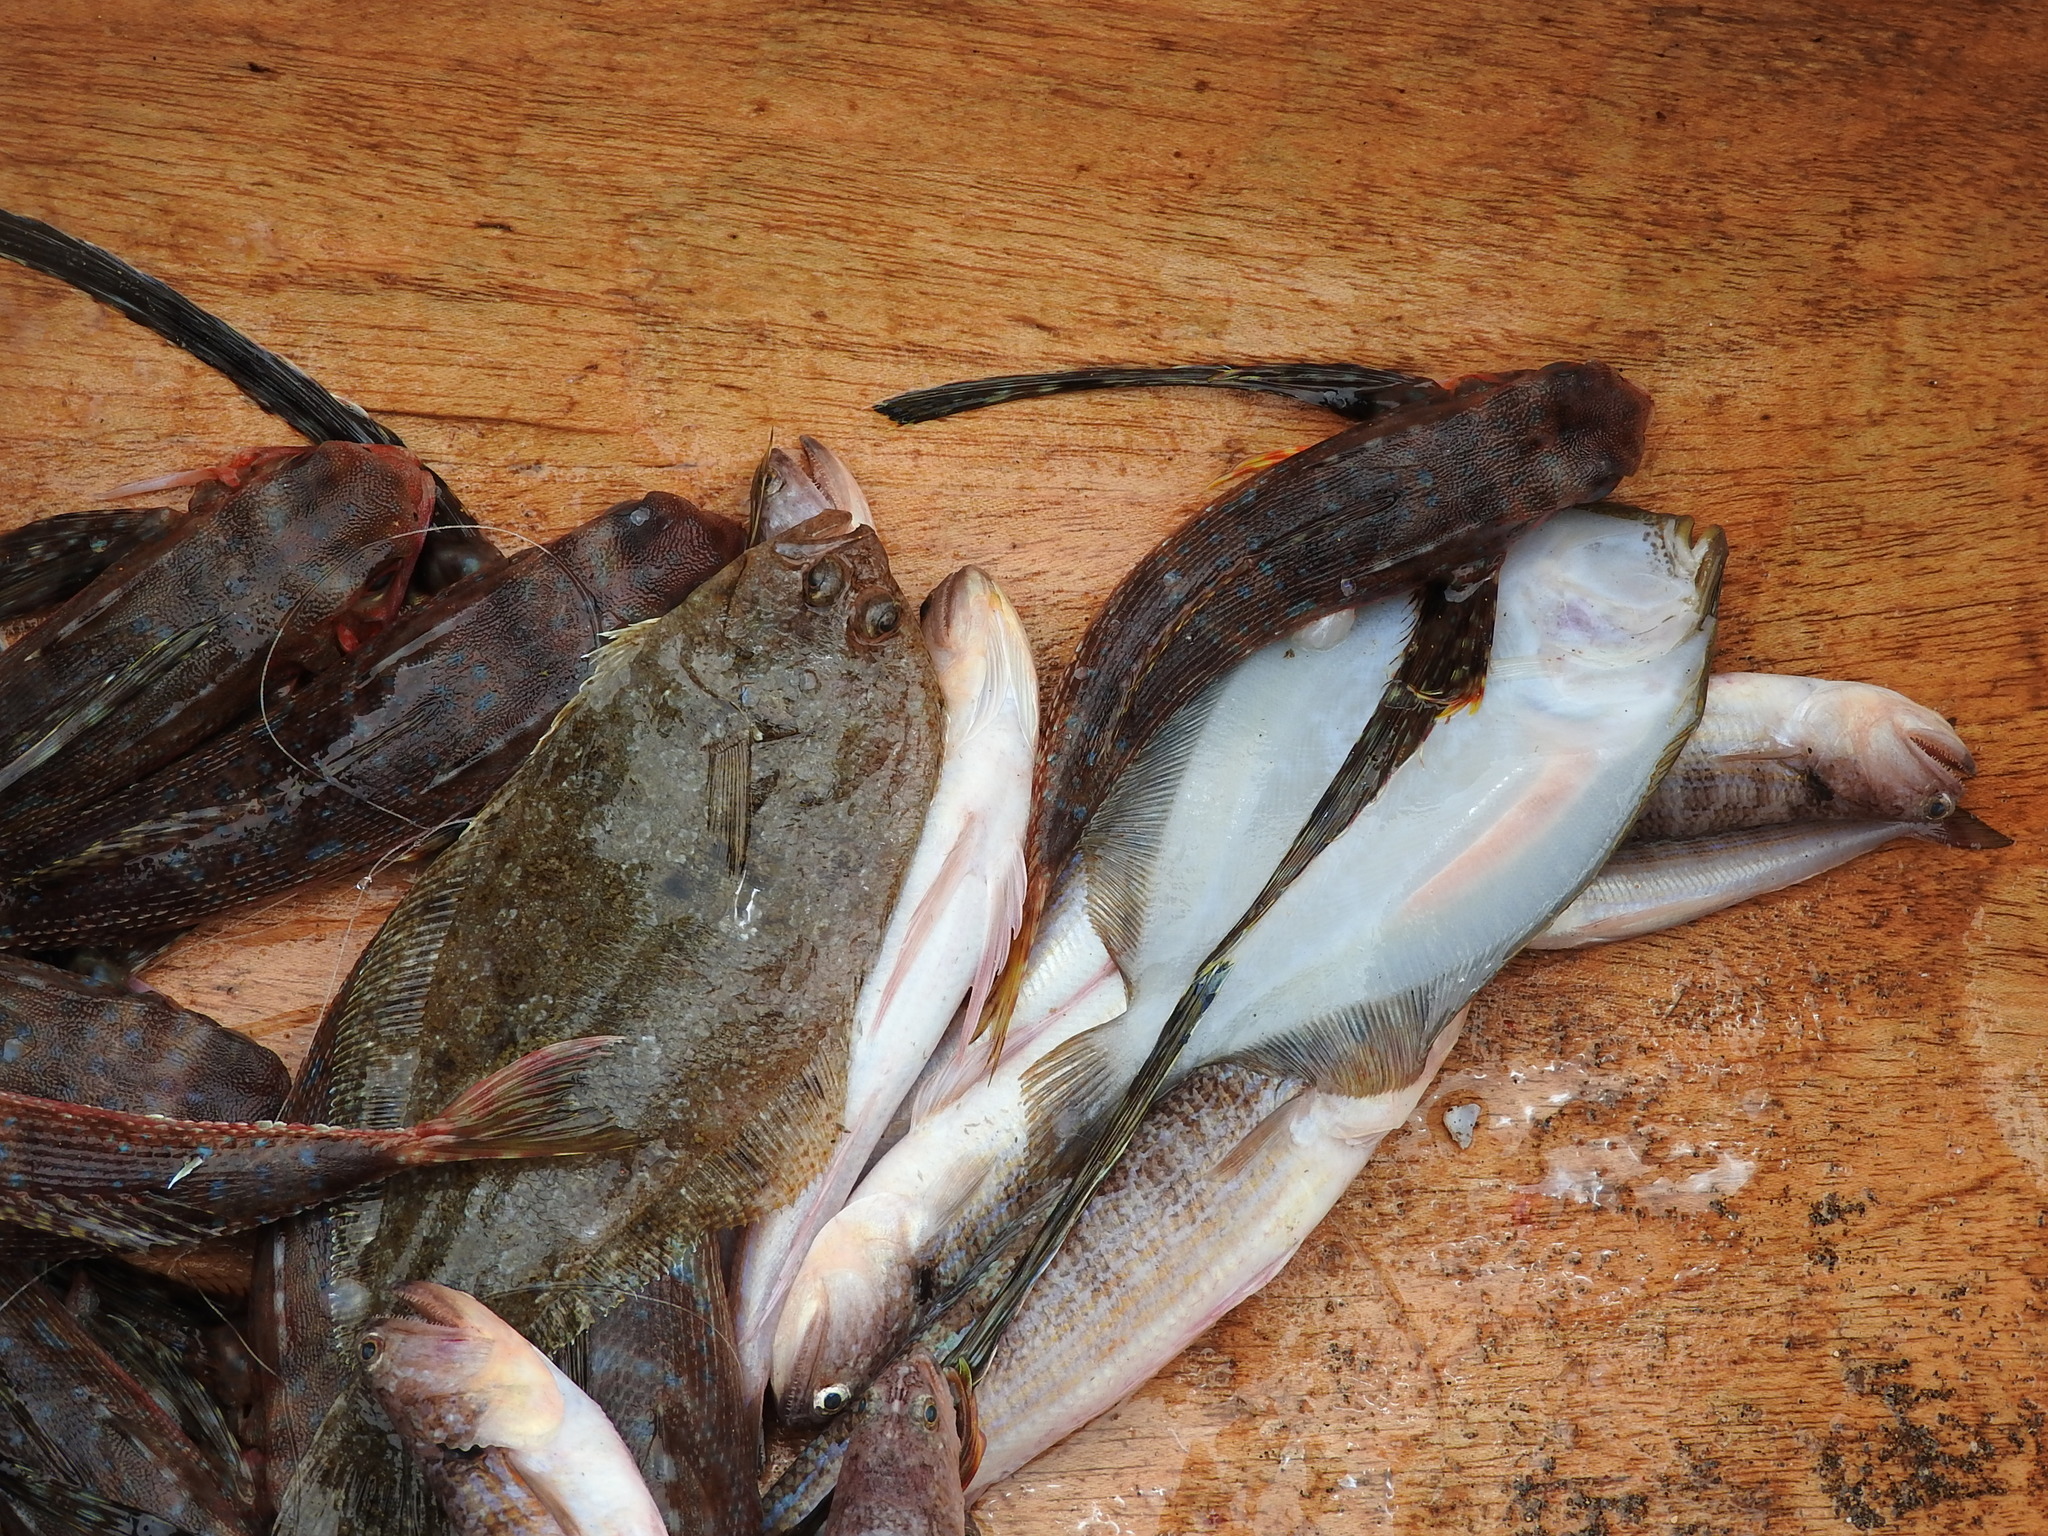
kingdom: Animalia
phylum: Chordata
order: Aulopiformes
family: Synodontidae
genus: Synodus
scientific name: Synodus myops
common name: Snakefish
